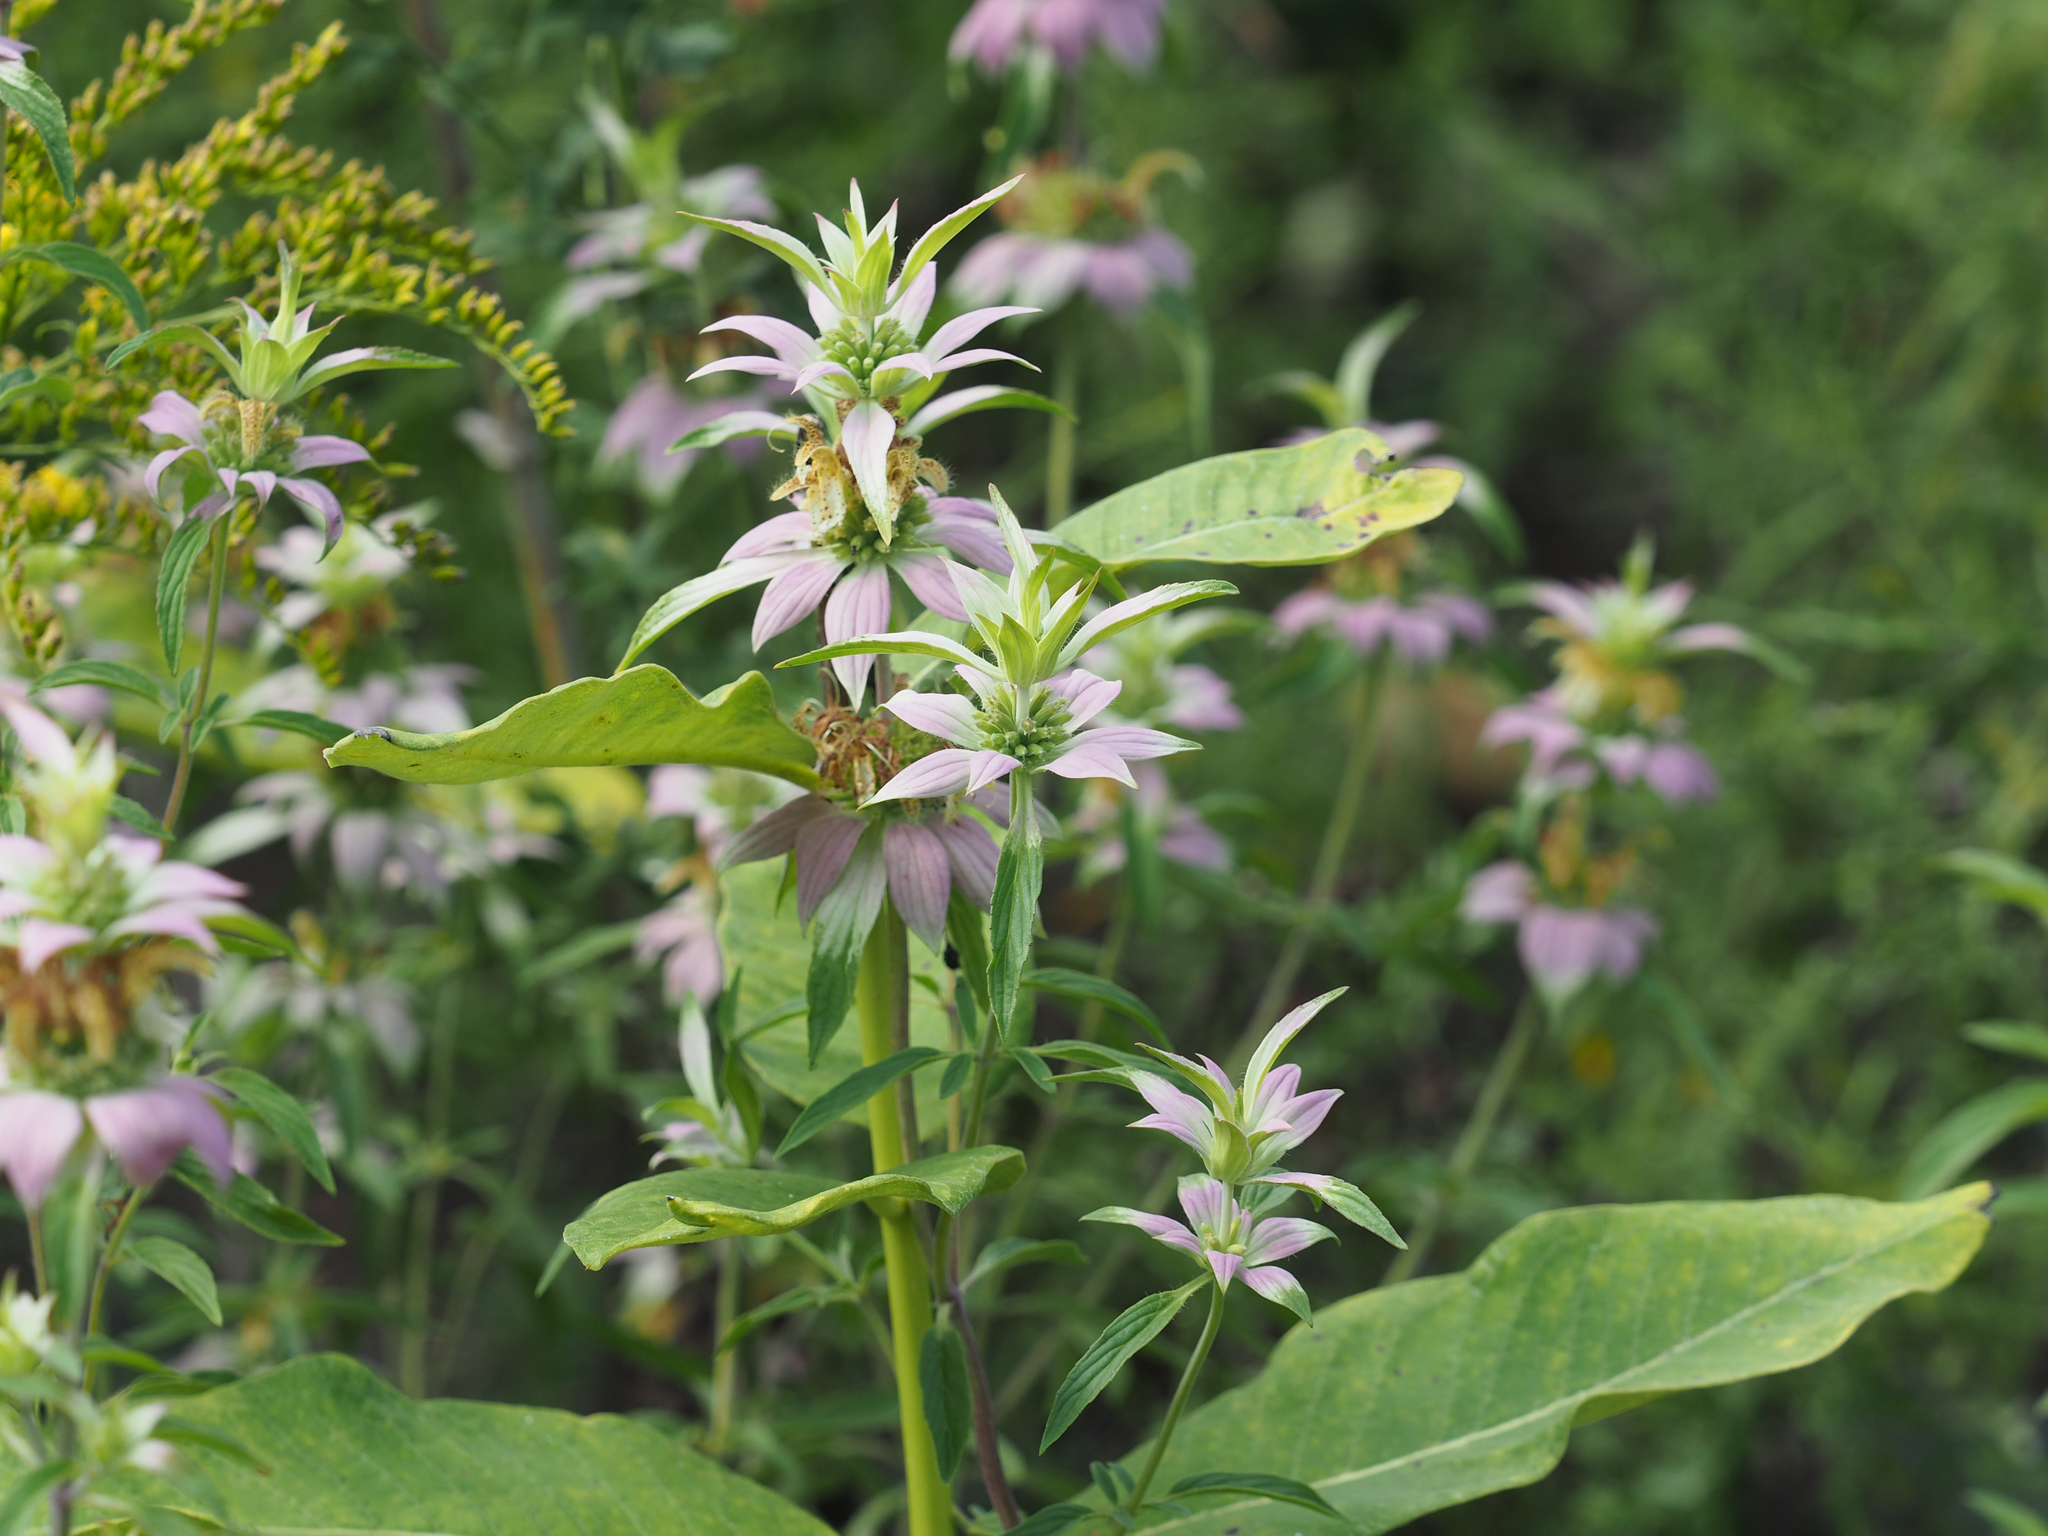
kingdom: Plantae
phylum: Tracheophyta
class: Magnoliopsida
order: Lamiales
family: Lamiaceae
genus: Monarda
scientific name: Monarda punctata
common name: Dotted monarda
